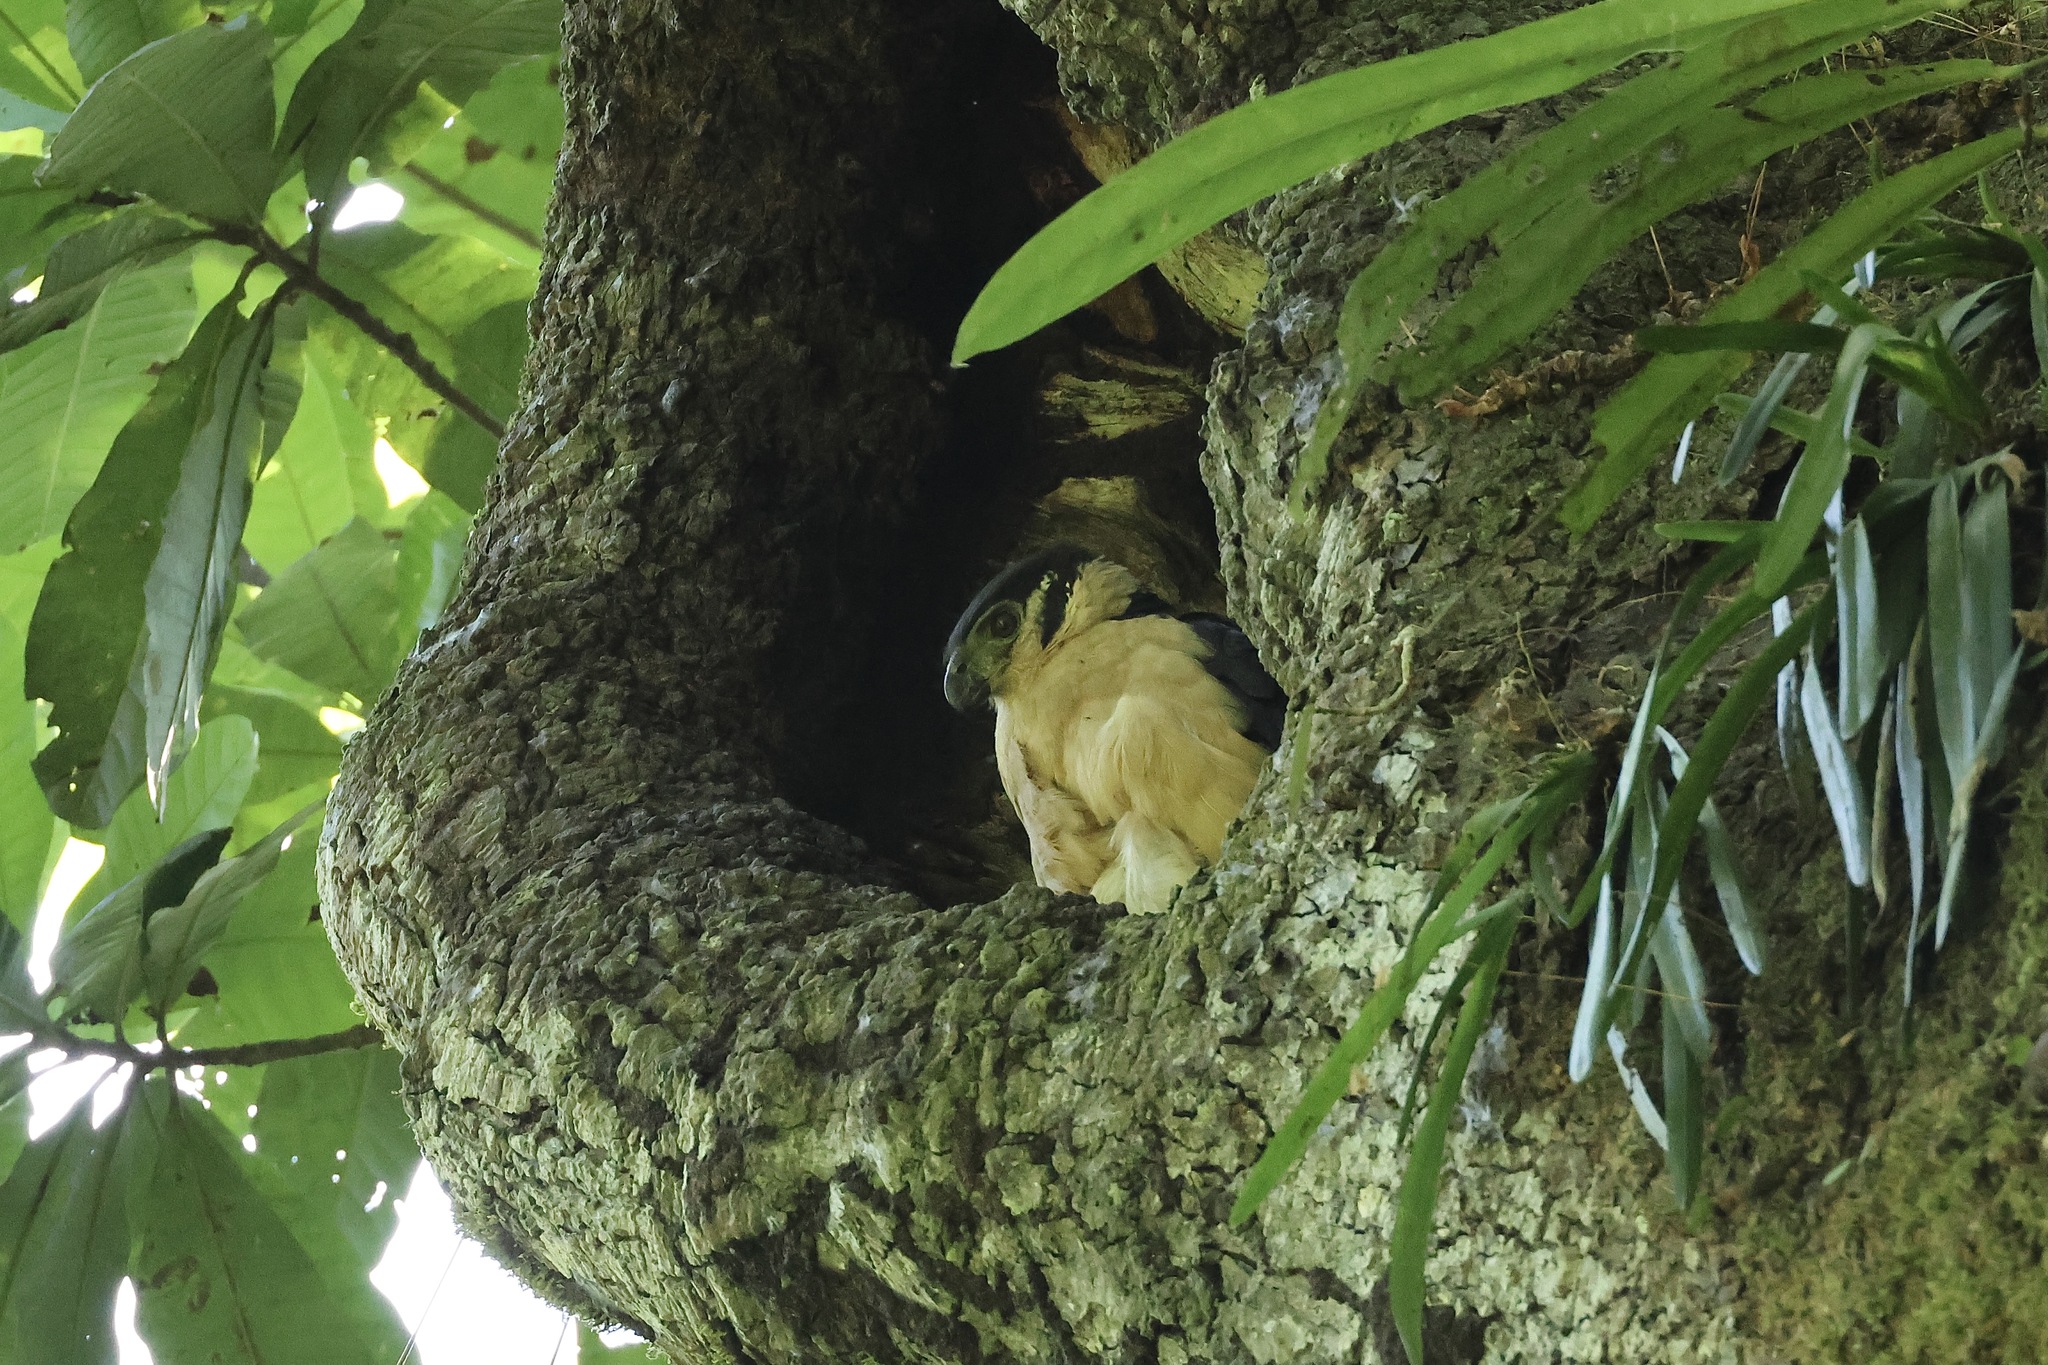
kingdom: Animalia
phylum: Chordata
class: Aves
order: Falconiformes
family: Falconidae
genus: Micrastur
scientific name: Micrastur semitorquatus
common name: Collared forest-falcon
